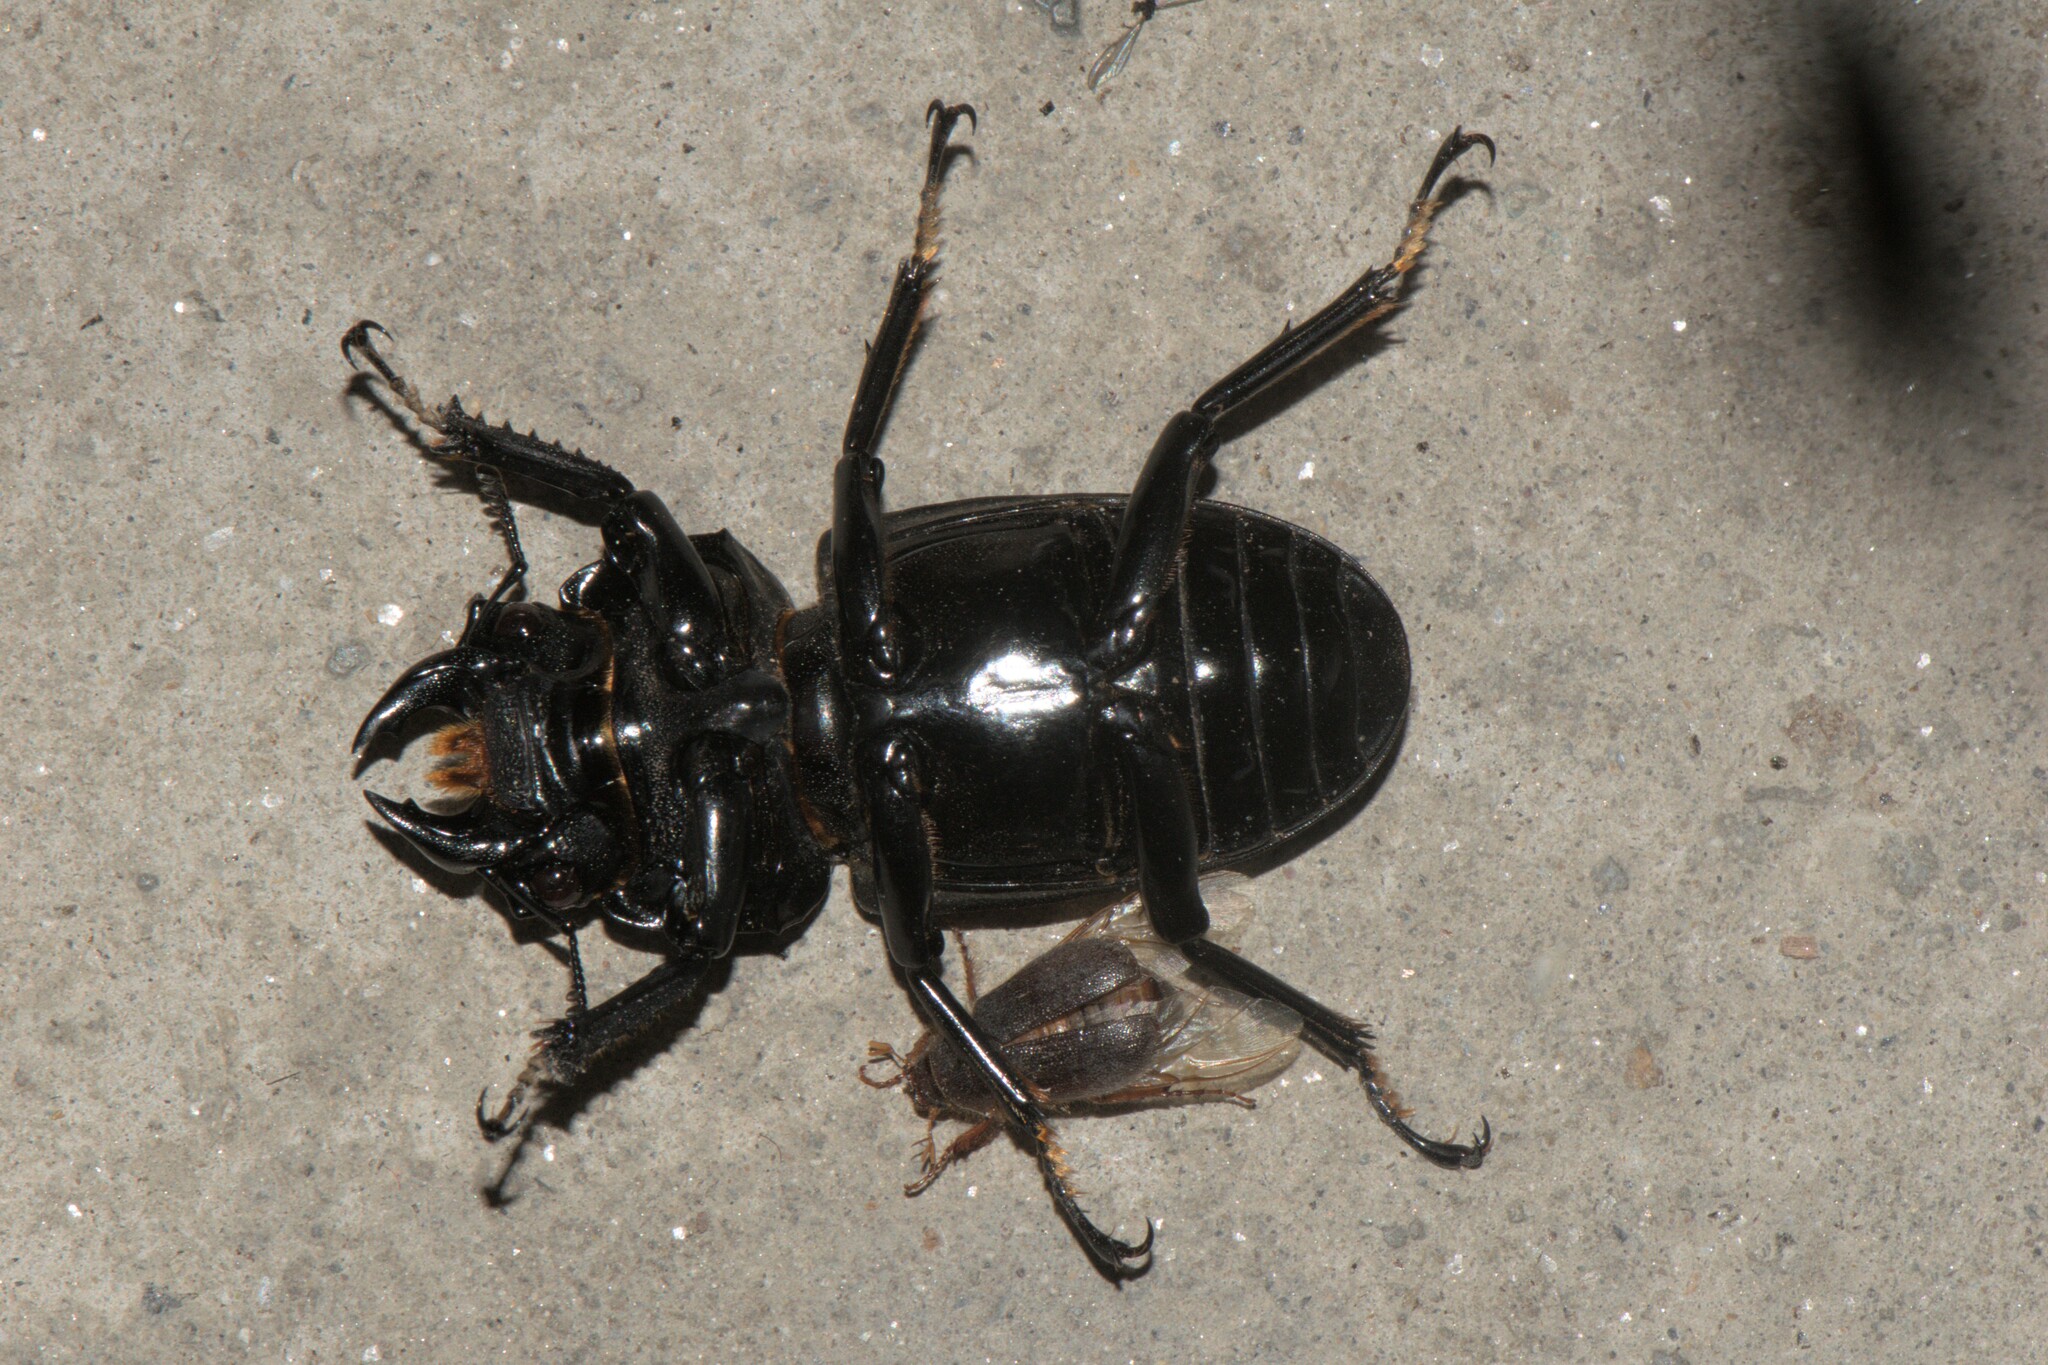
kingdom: Animalia
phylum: Arthropoda
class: Insecta
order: Coleoptera
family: Lucanidae
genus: Dorcus
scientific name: Dorcus nepalensis
